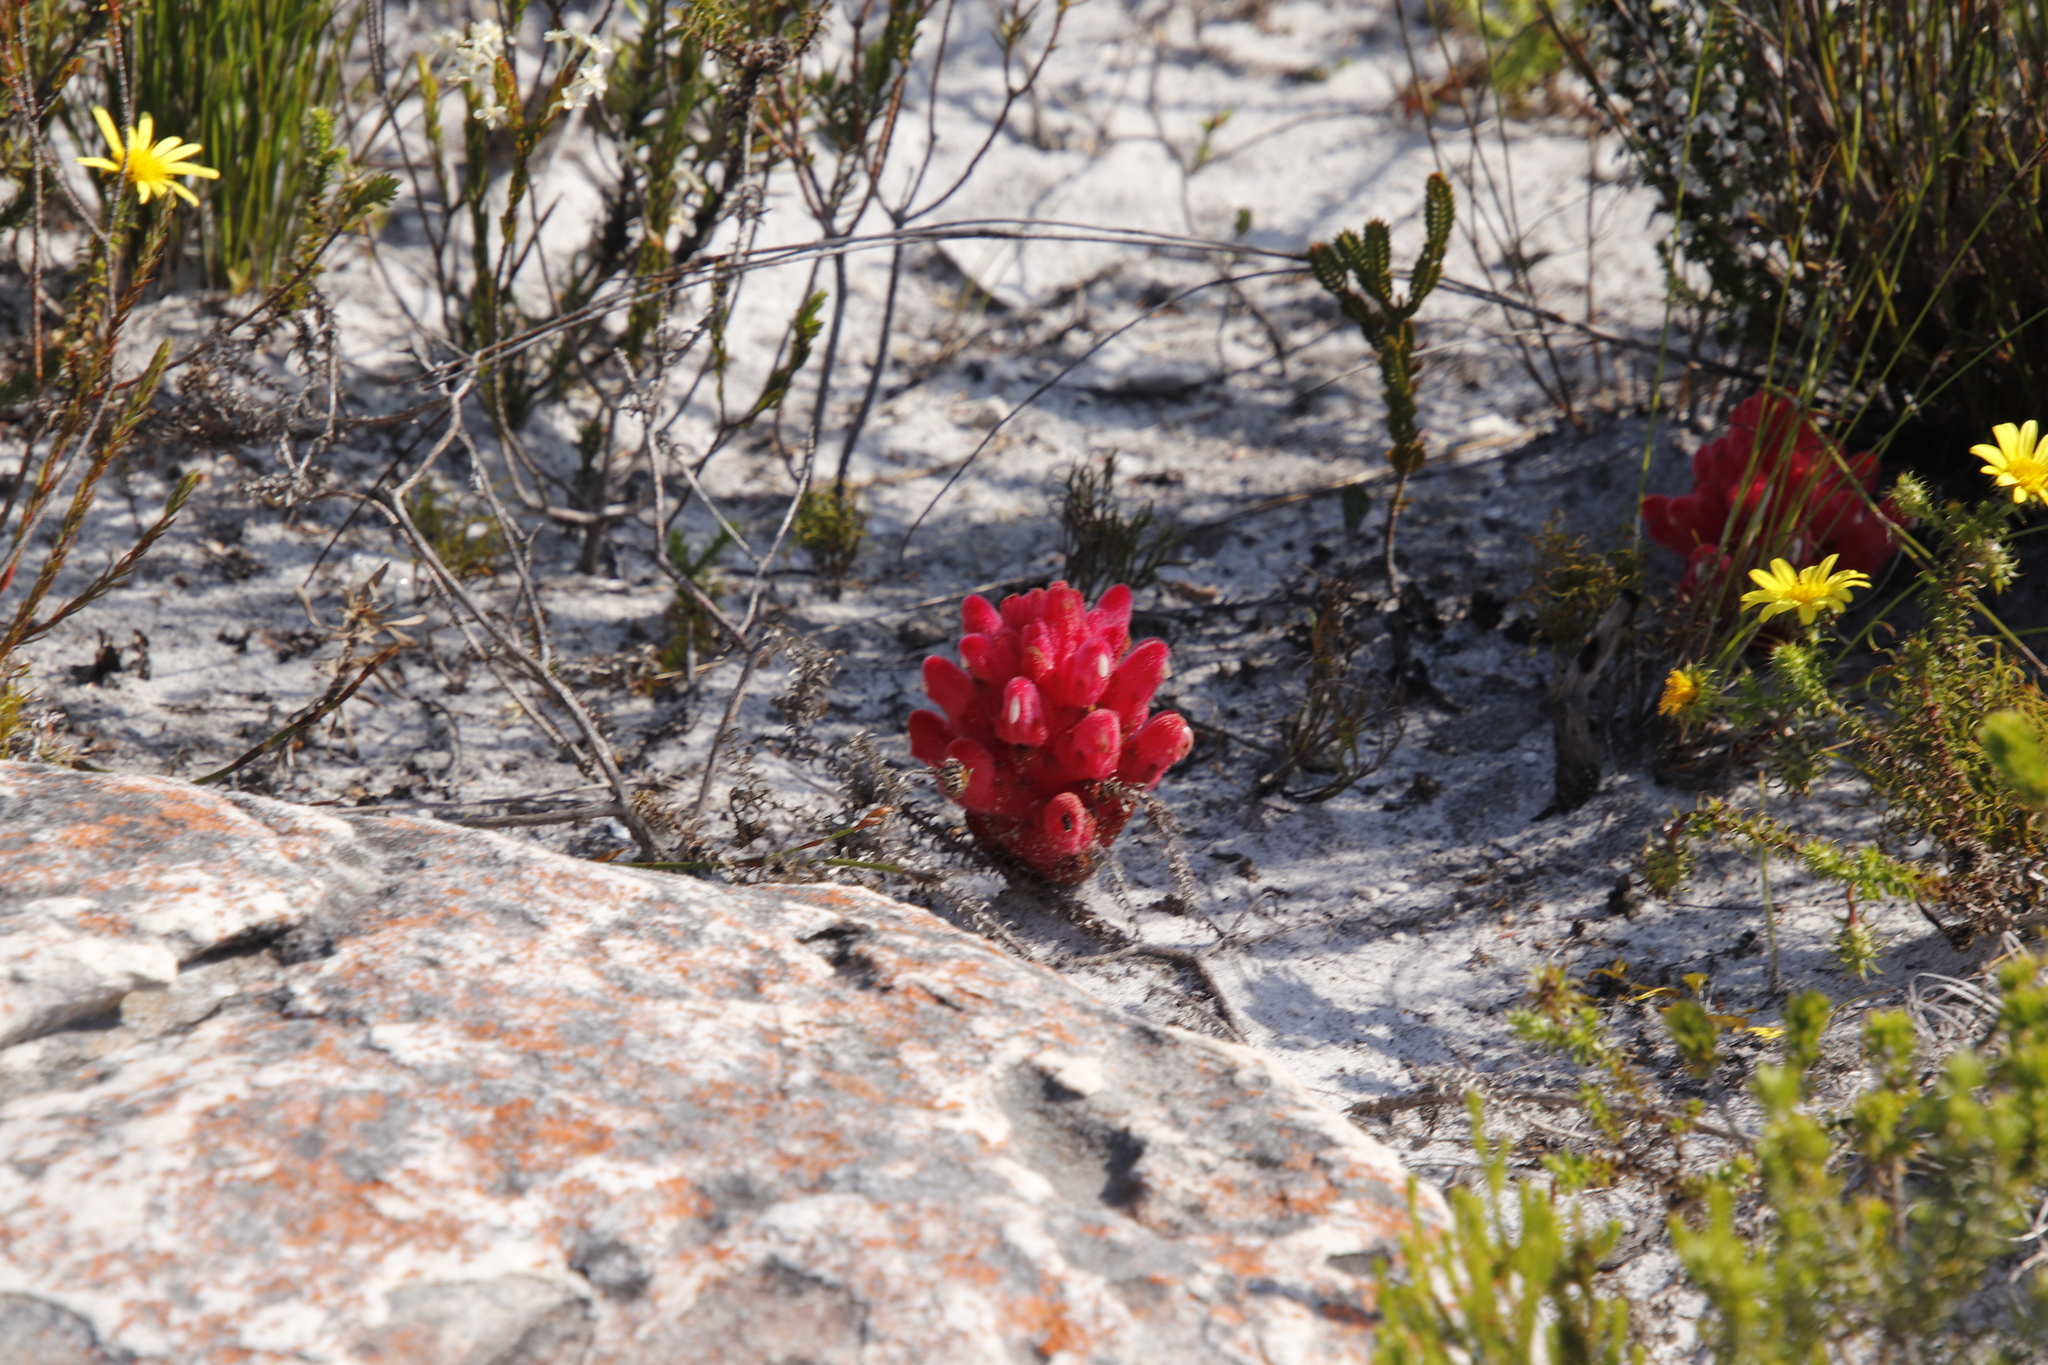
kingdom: Plantae
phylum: Tracheophyta
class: Magnoliopsida
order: Lamiales
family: Orobanchaceae
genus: Hyobanche
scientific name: Hyobanche sanguinea
